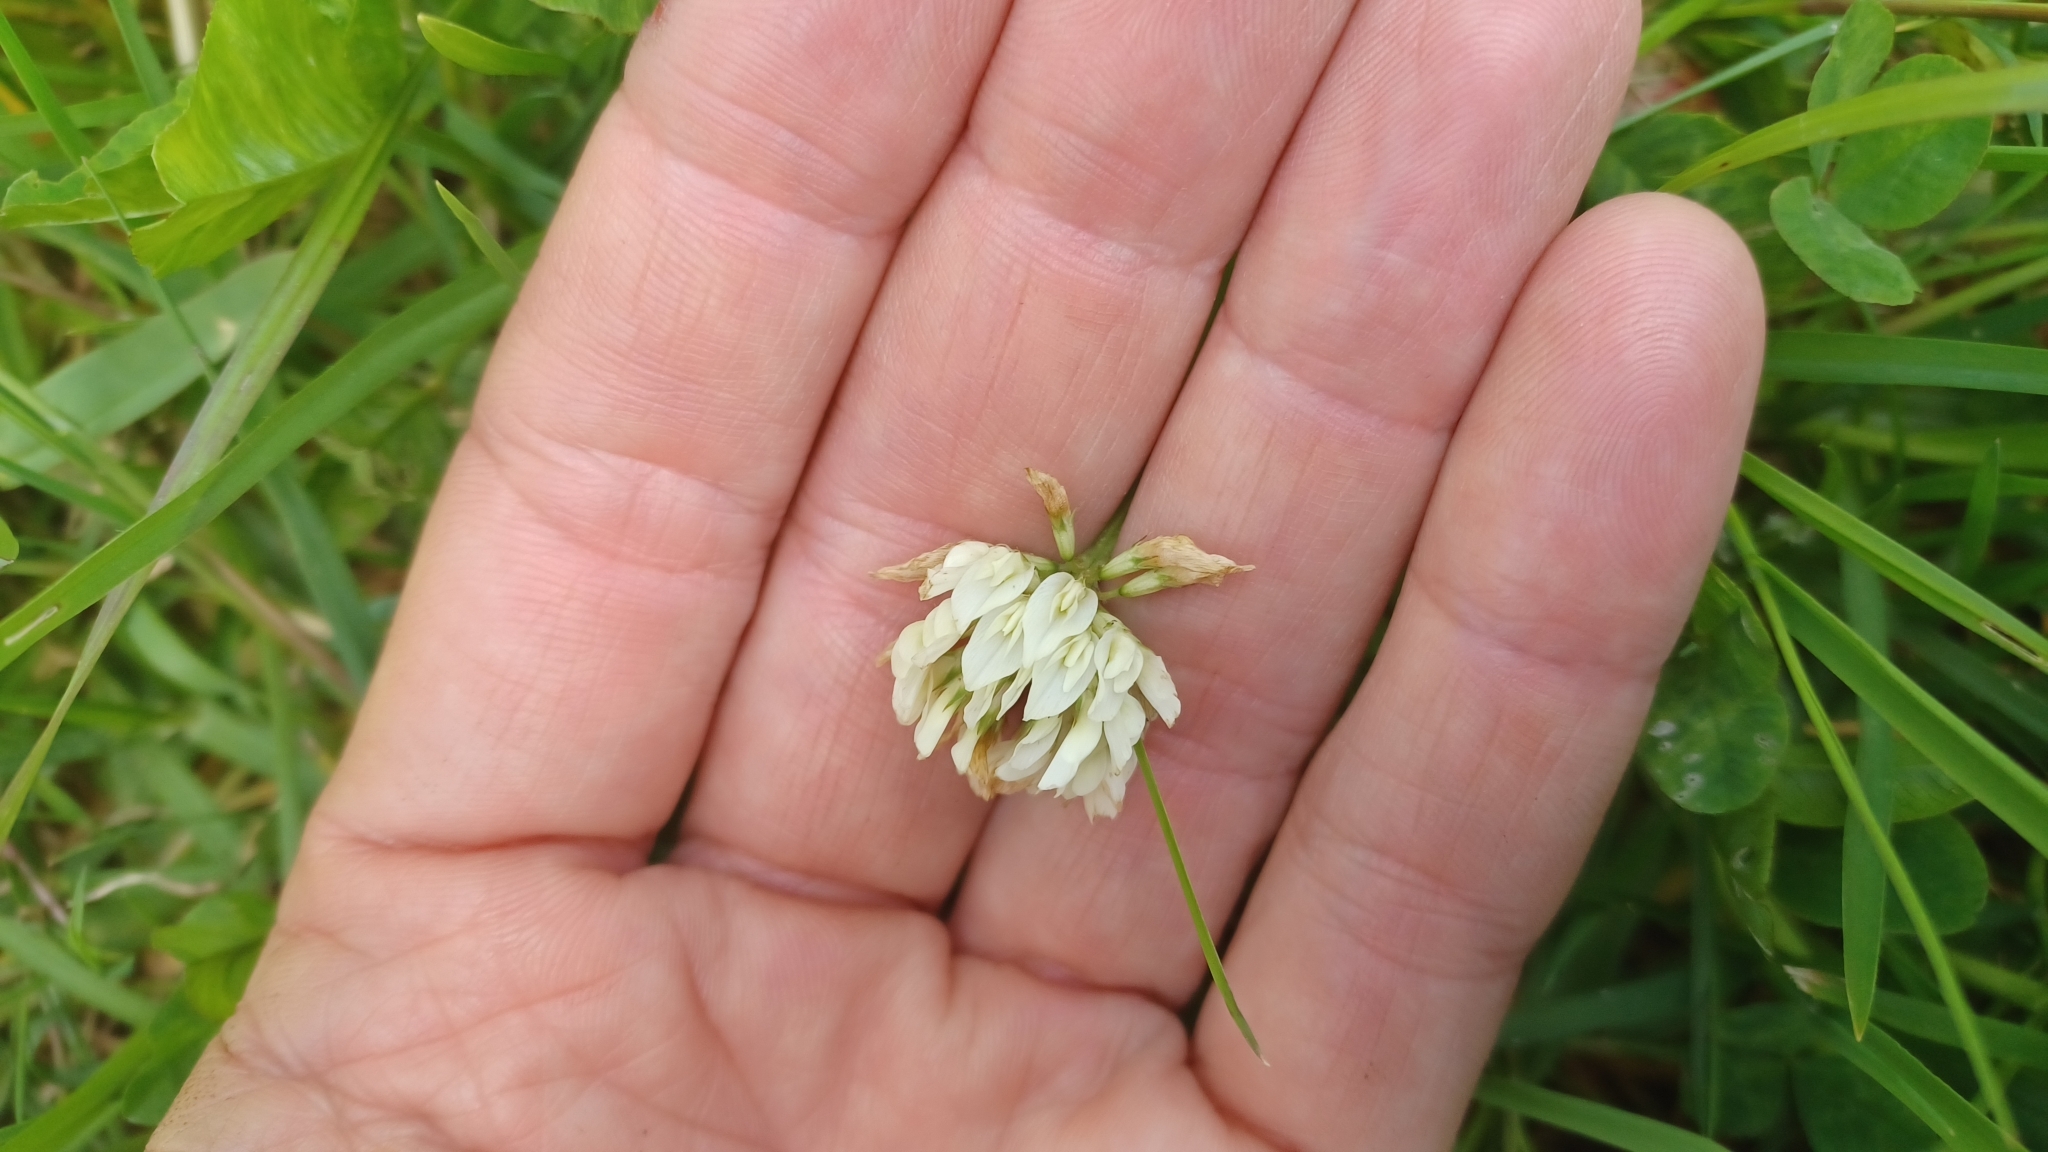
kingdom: Plantae
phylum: Tracheophyta
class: Magnoliopsida
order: Fabales
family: Fabaceae
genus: Trifolium
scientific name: Trifolium repens
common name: White clover
